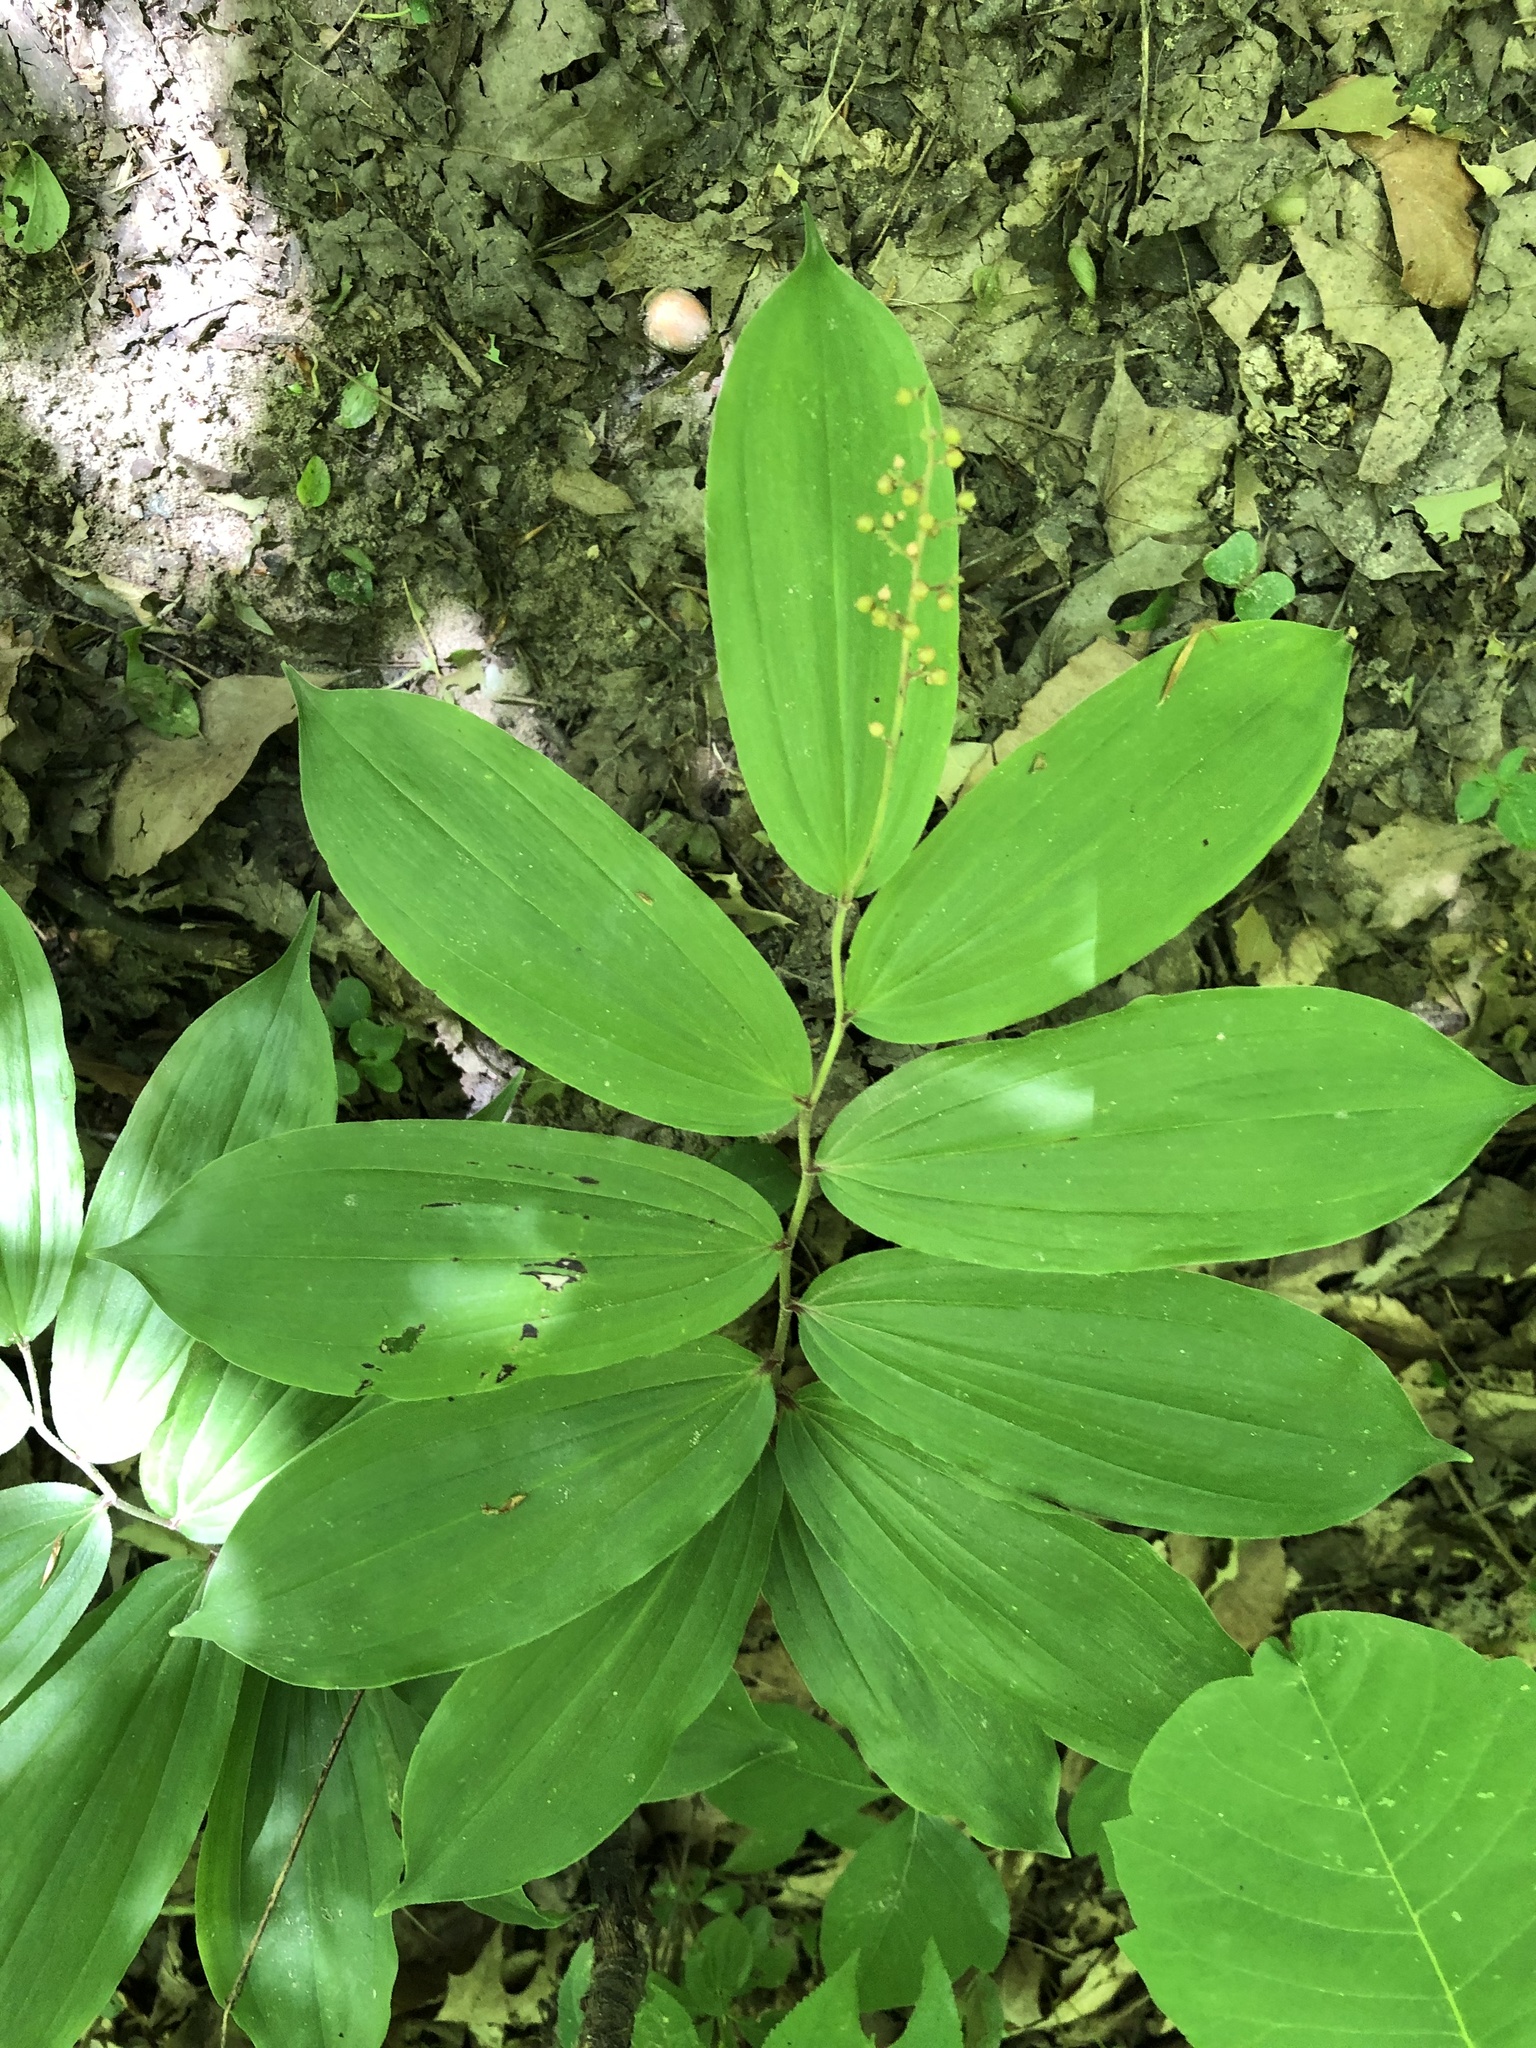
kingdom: Plantae
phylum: Tracheophyta
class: Liliopsida
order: Asparagales
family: Asparagaceae
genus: Maianthemum
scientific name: Maianthemum racemosum
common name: False spikenard
